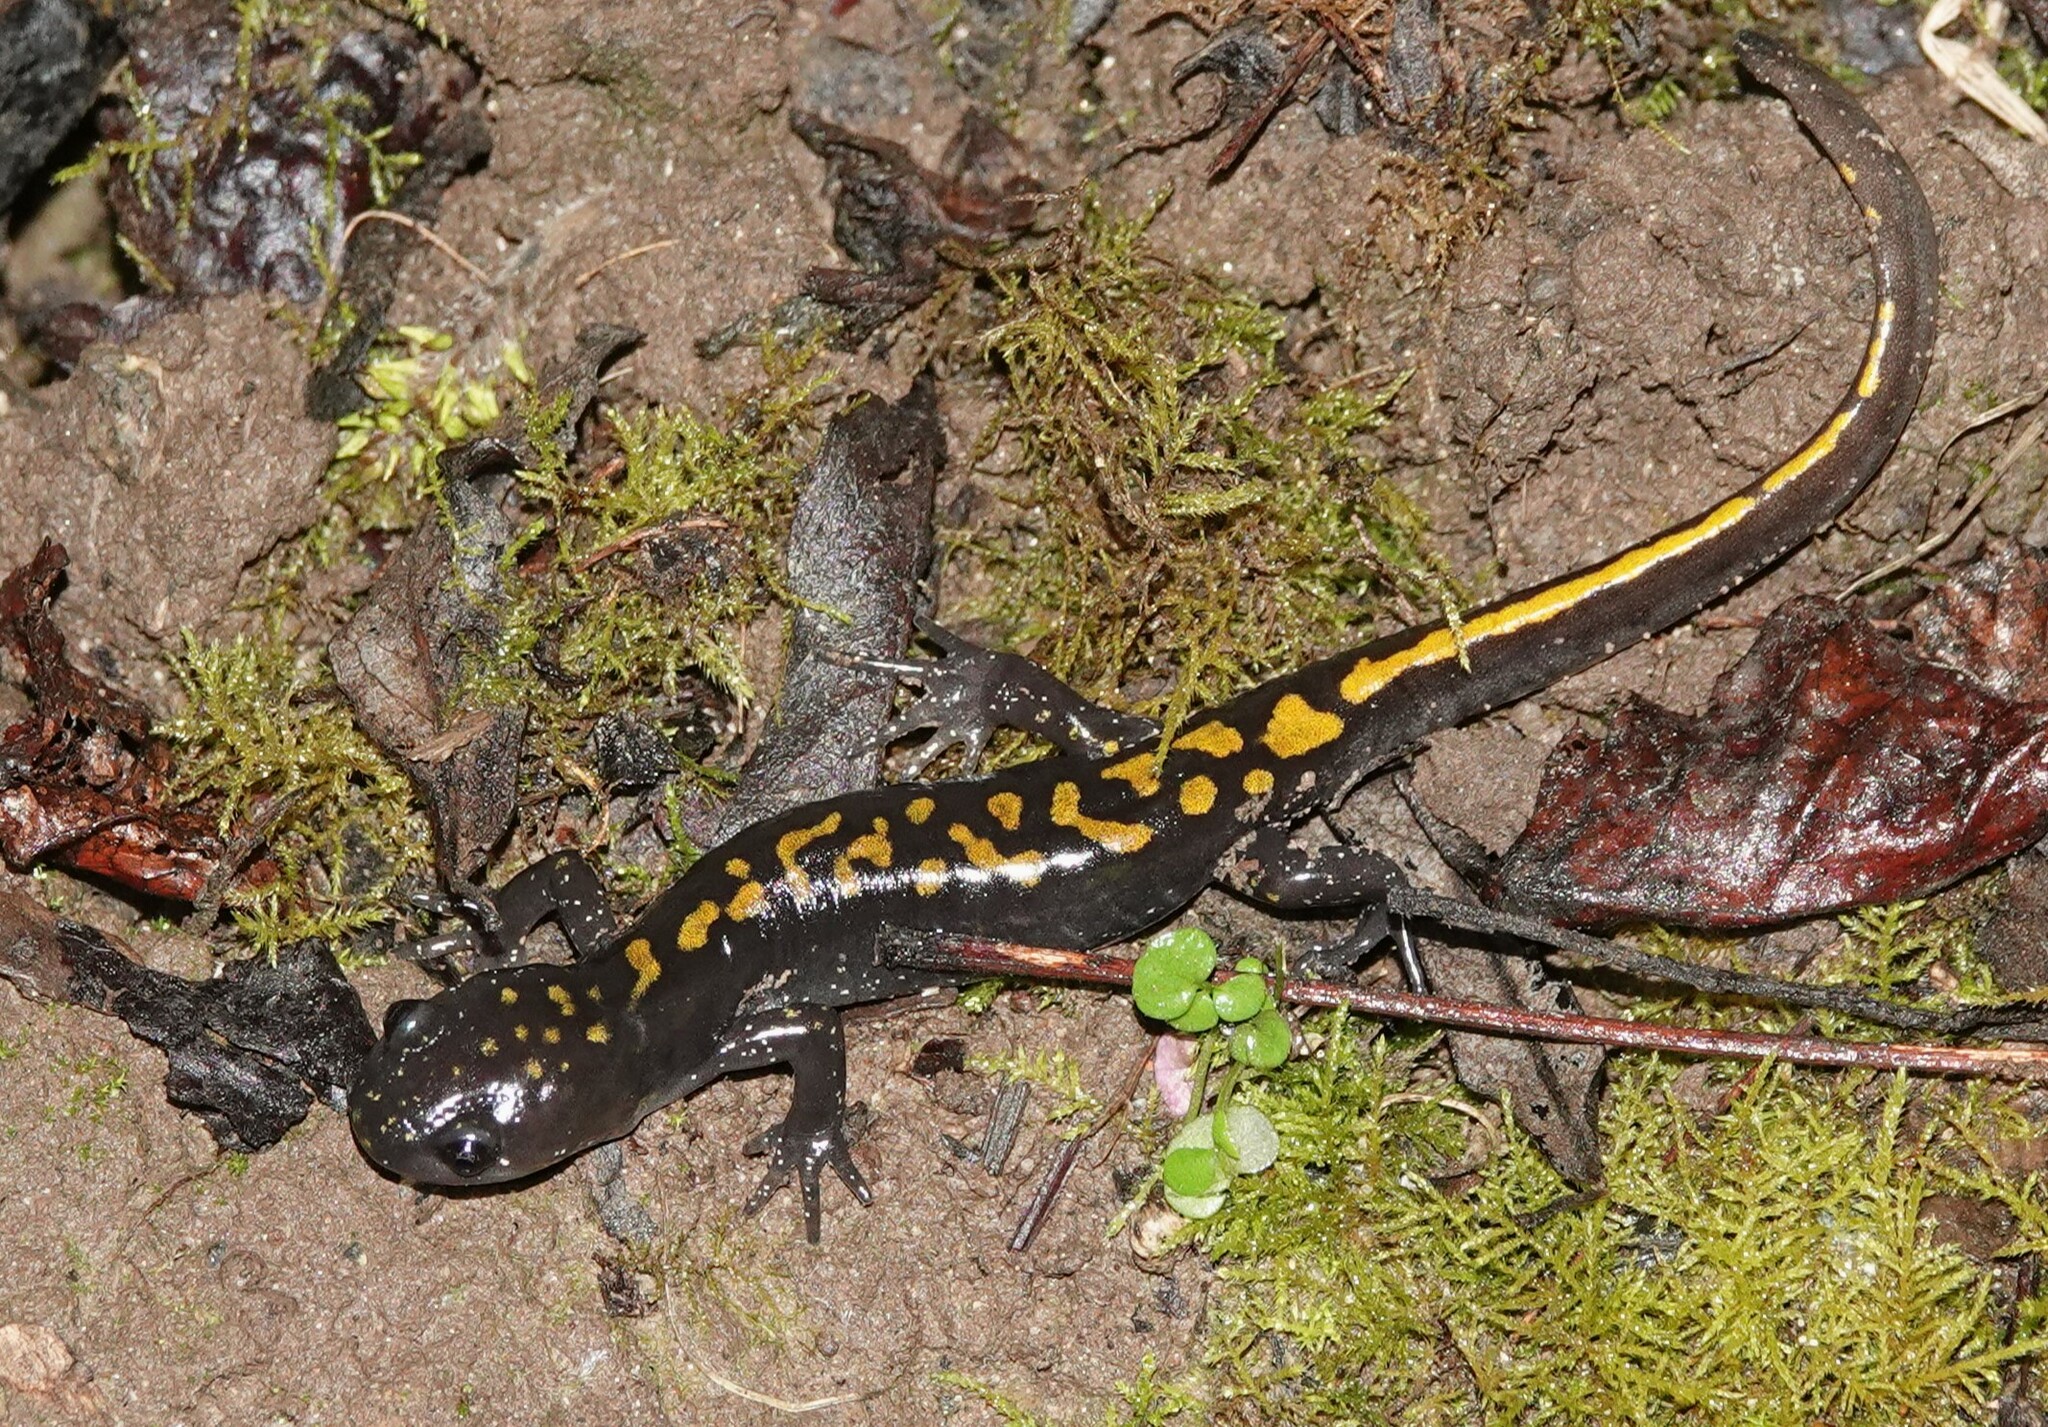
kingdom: Animalia
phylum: Chordata
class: Amphibia
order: Caudata
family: Ambystomatidae
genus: Ambystoma
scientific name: Ambystoma macrodactylum
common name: Long-toed salamander
